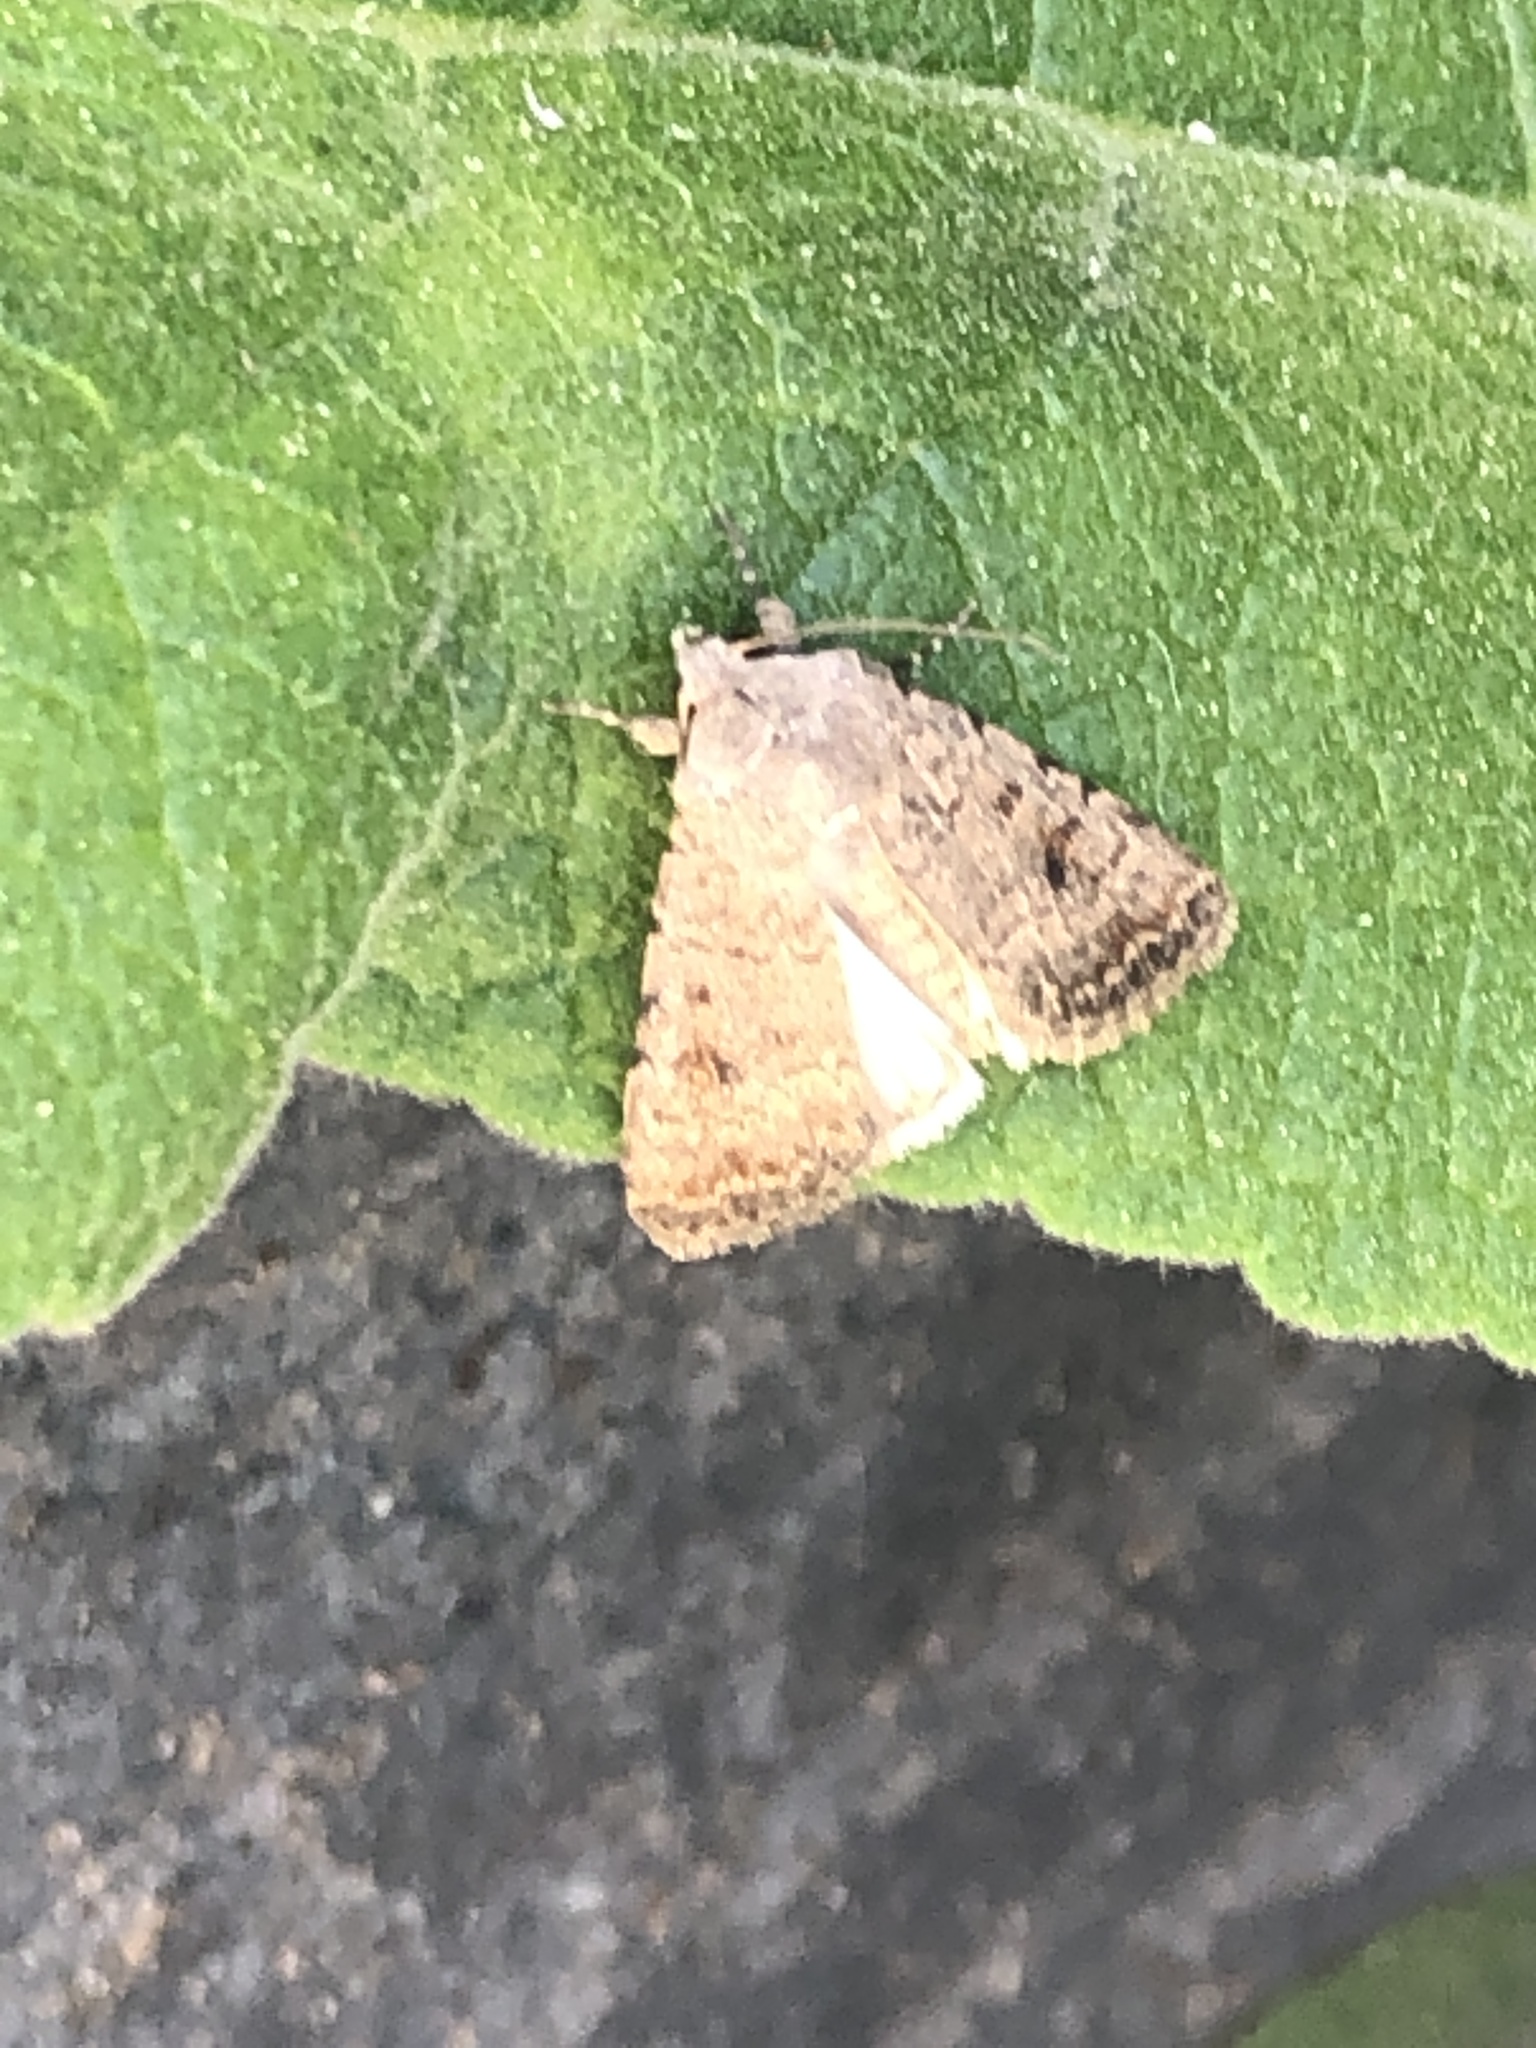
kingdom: Animalia
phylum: Arthropoda
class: Insecta
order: Lepidoptera
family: Noctuidae
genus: Caradrina
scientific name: Caradrina clavipalpis
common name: Pale mottled willow
